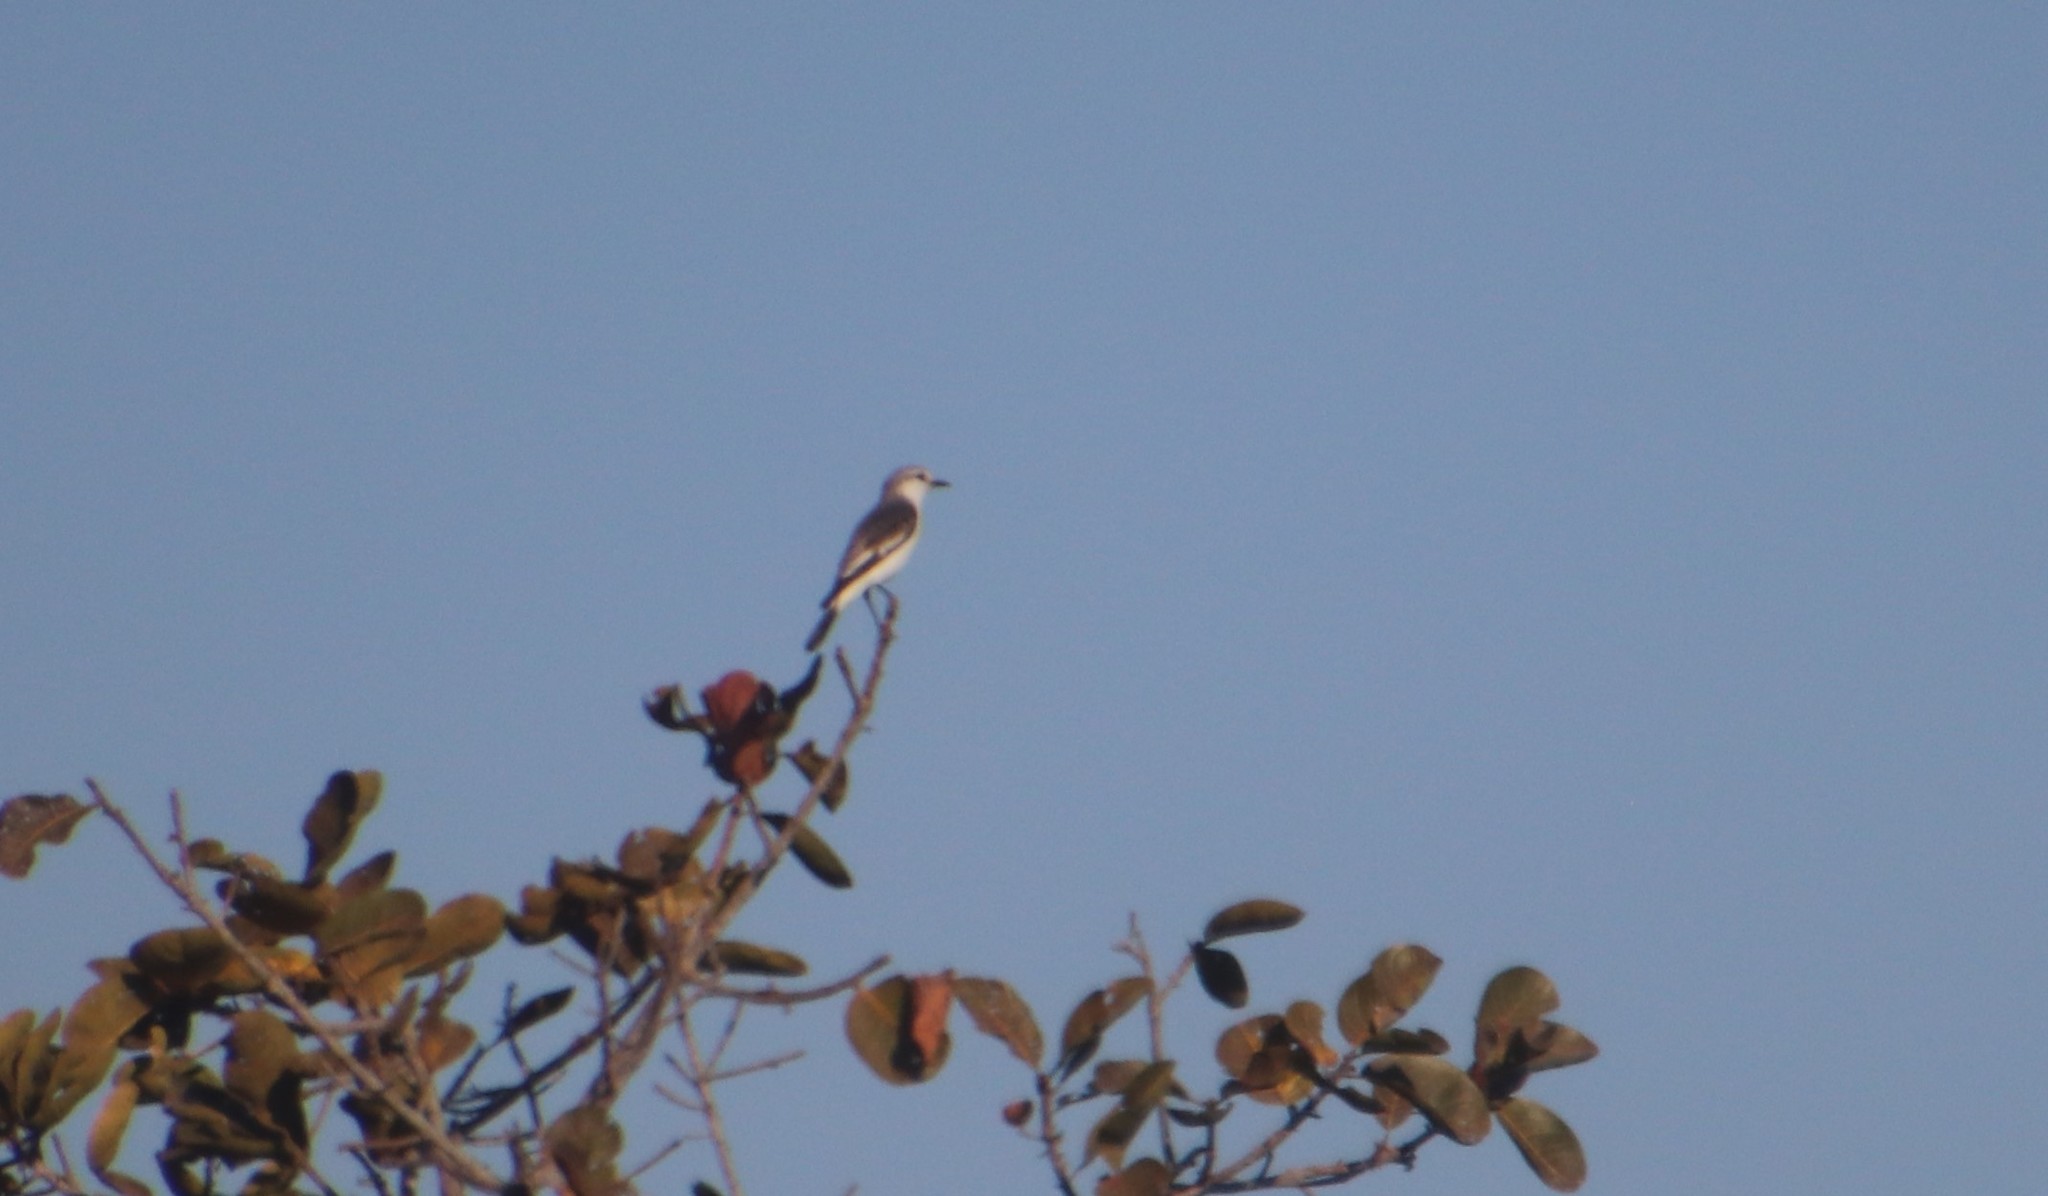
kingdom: Animalia
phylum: Chordata
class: Aves
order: Passeriformes
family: Tyrannidae
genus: Xolmis
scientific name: Xolmis velatus
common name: White-rumped monjita
